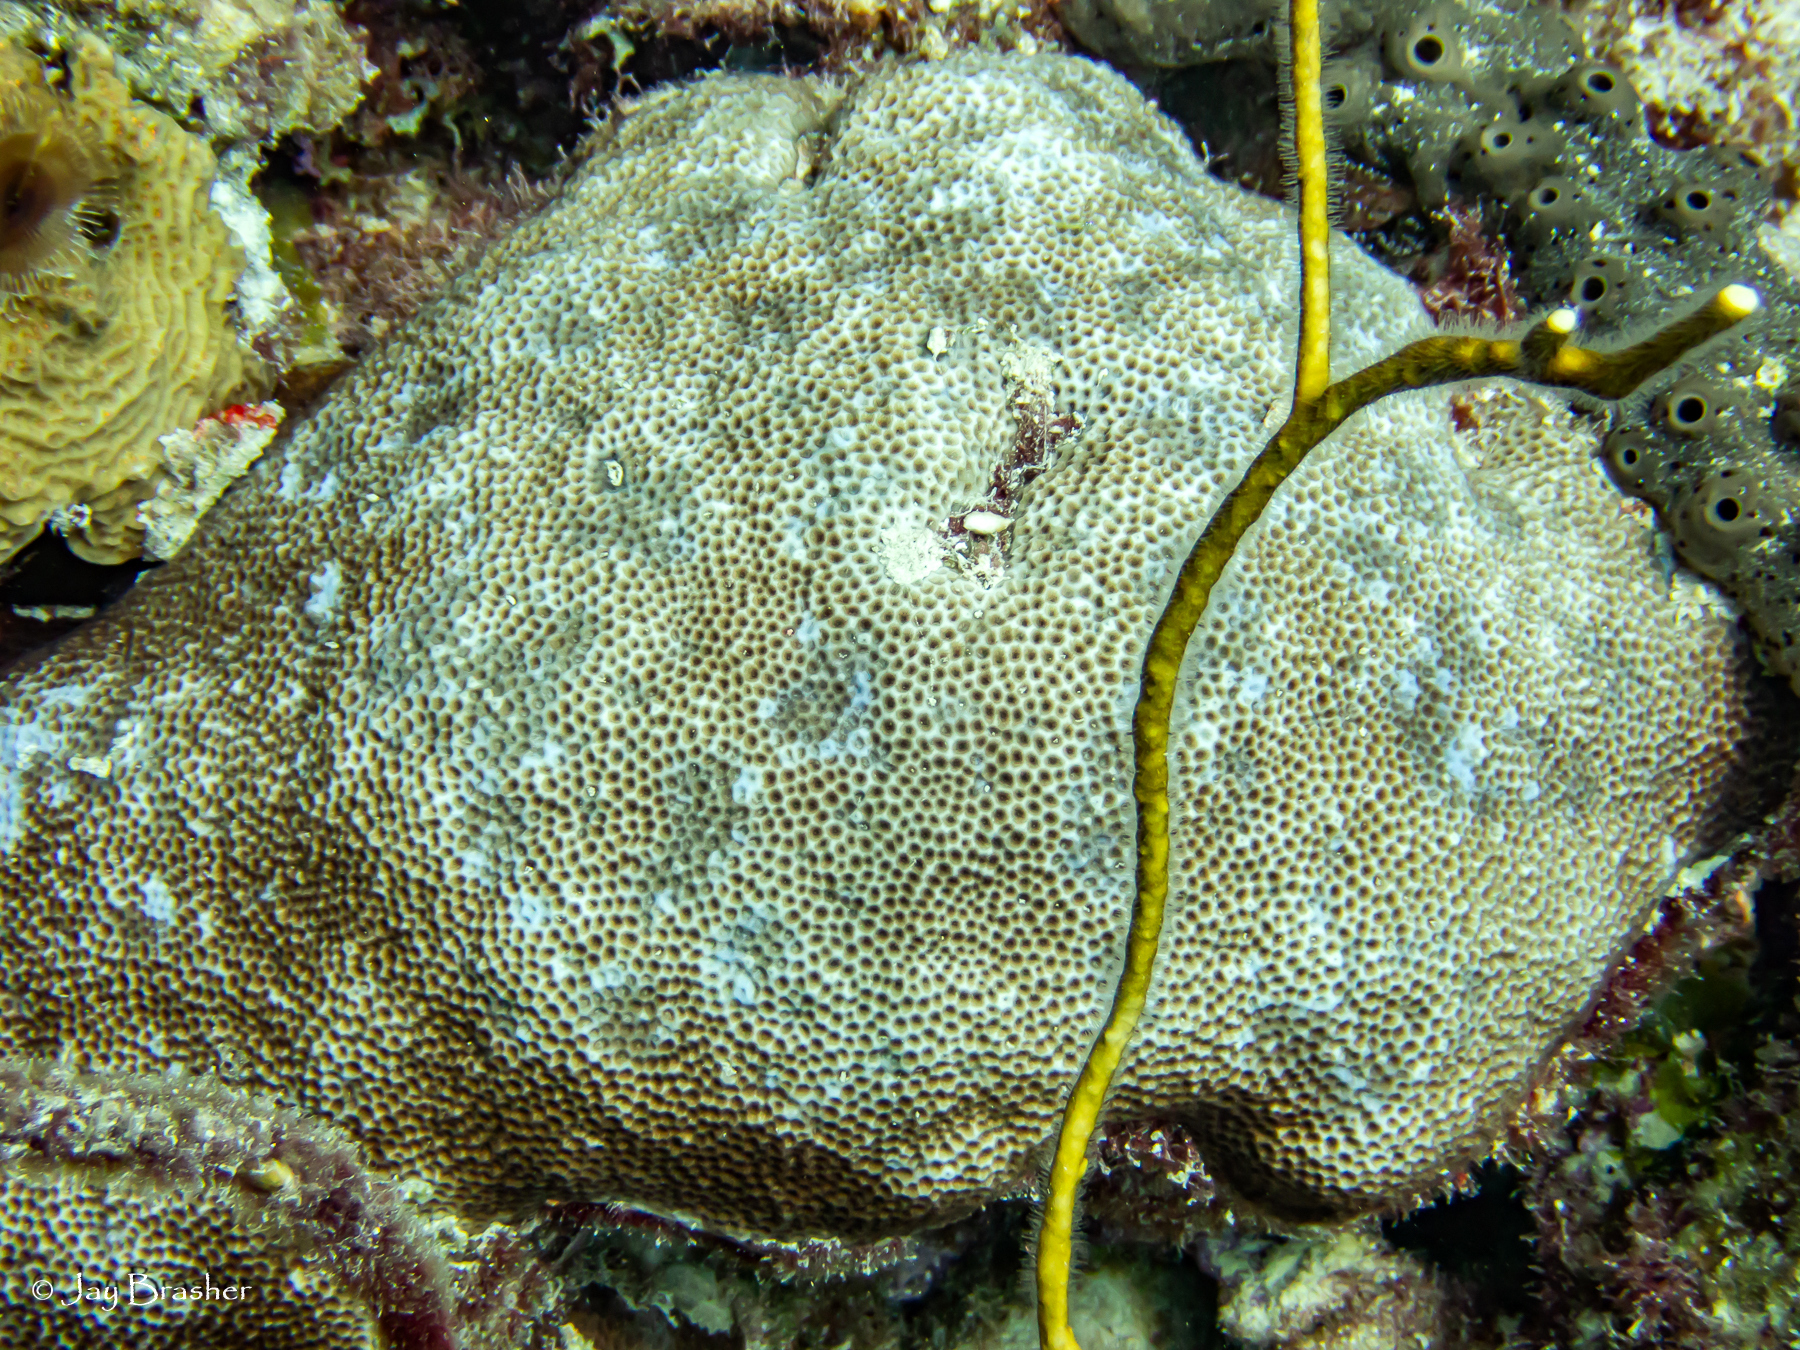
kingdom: Animalia
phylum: Cnidaria
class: Anthozoa
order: Scleractinia
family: Rhizangiidae
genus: Siderastrea
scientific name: Siderastrea siderea
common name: Massive starlet coral
